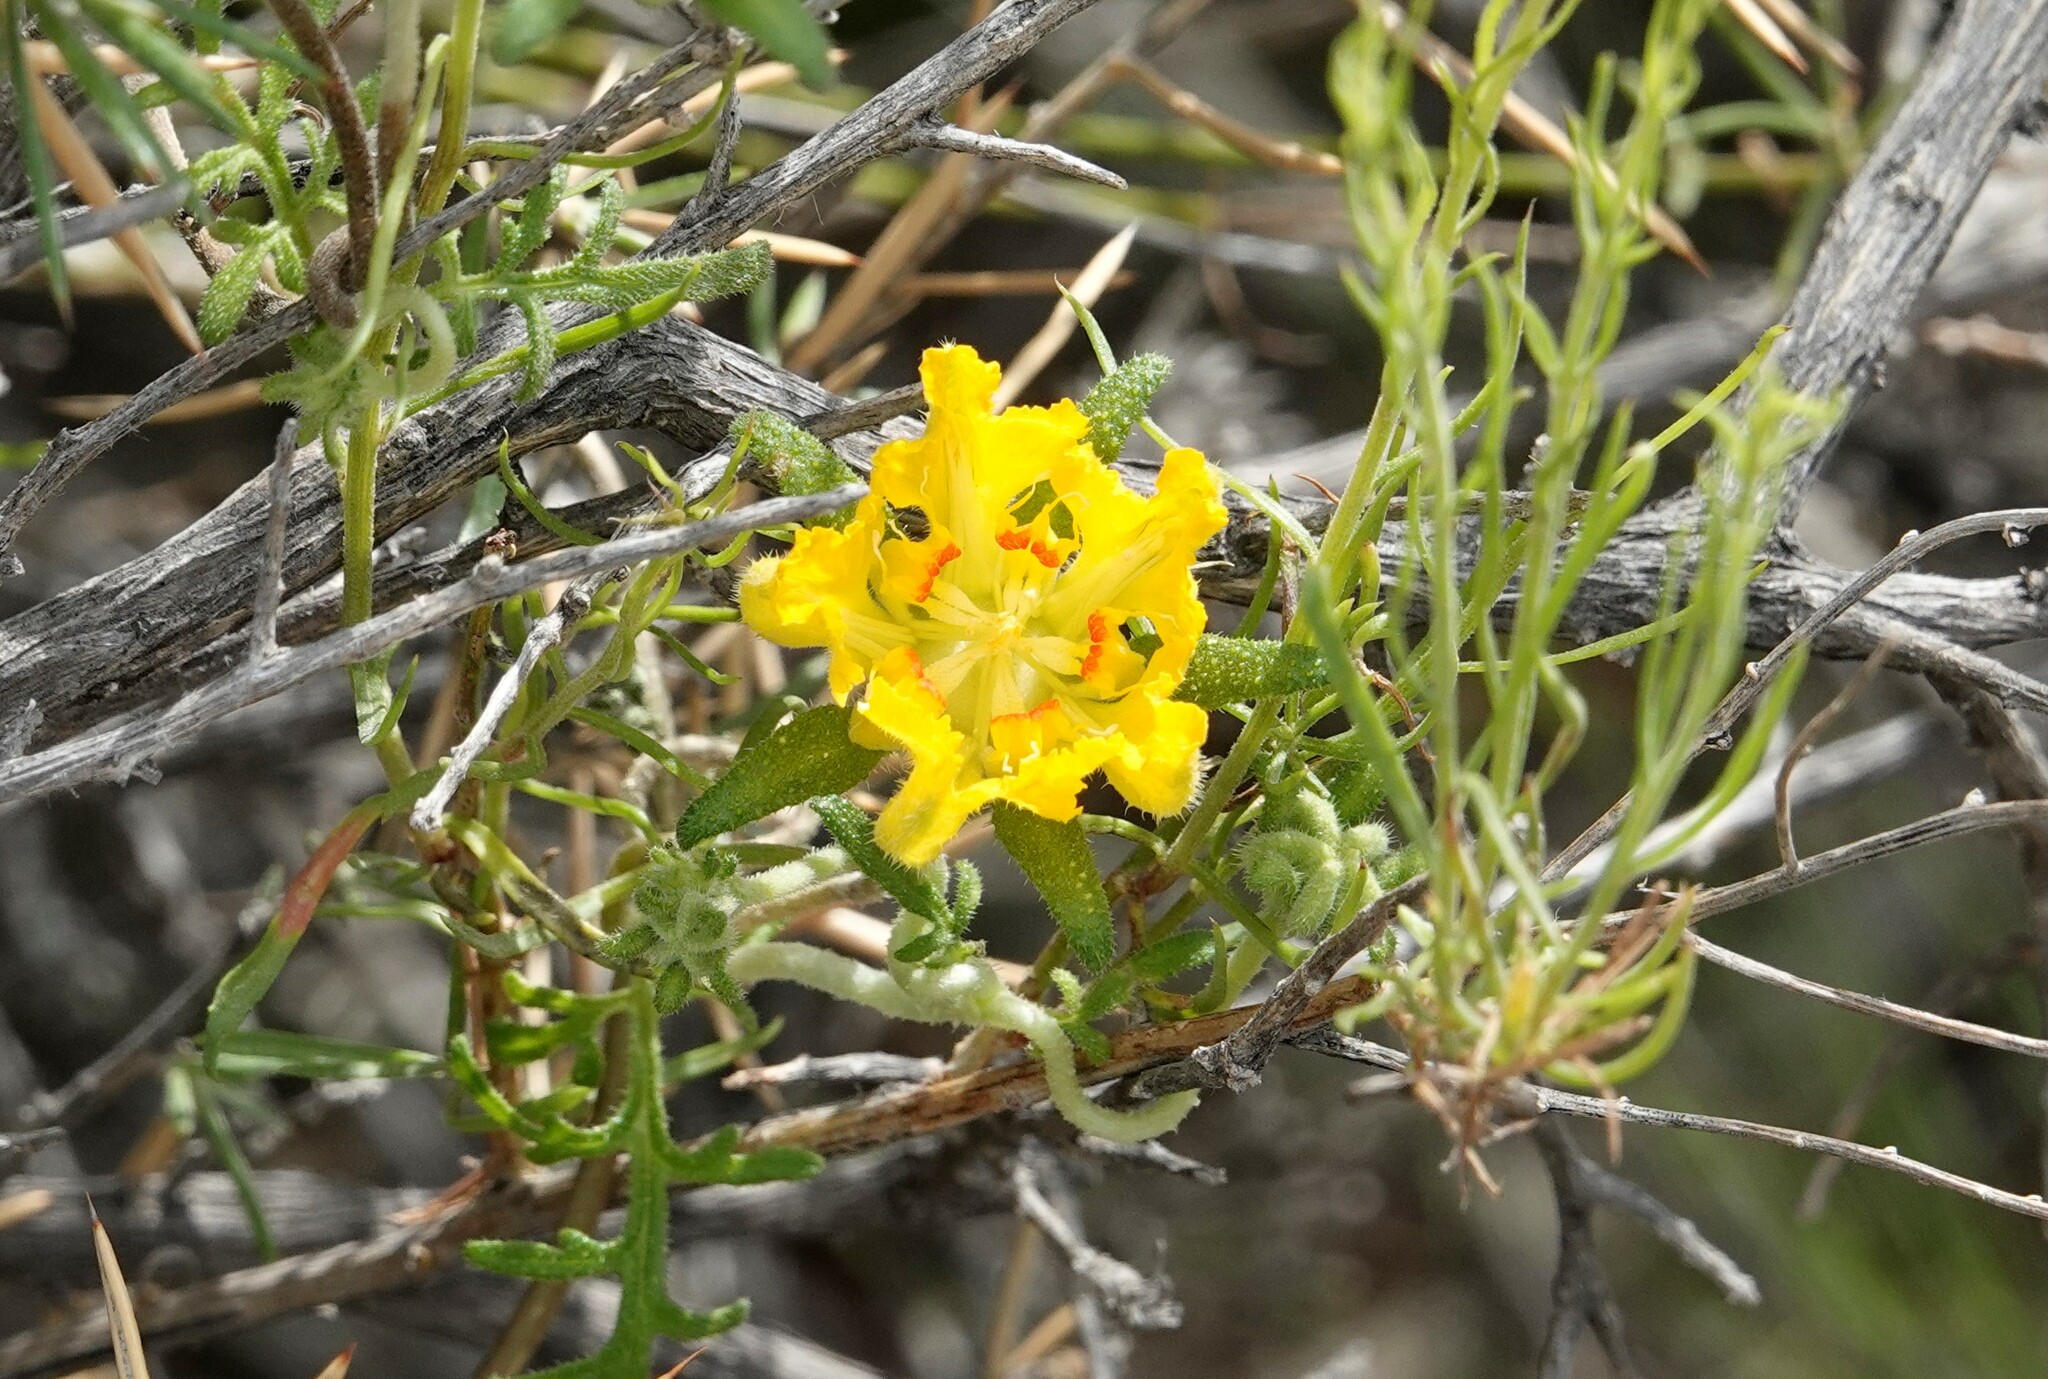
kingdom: Plantae
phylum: Tracheophyta
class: Magnoliopsida
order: Cornales
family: Loasaceae
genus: Pinnasa
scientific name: Pinnasa bergii
